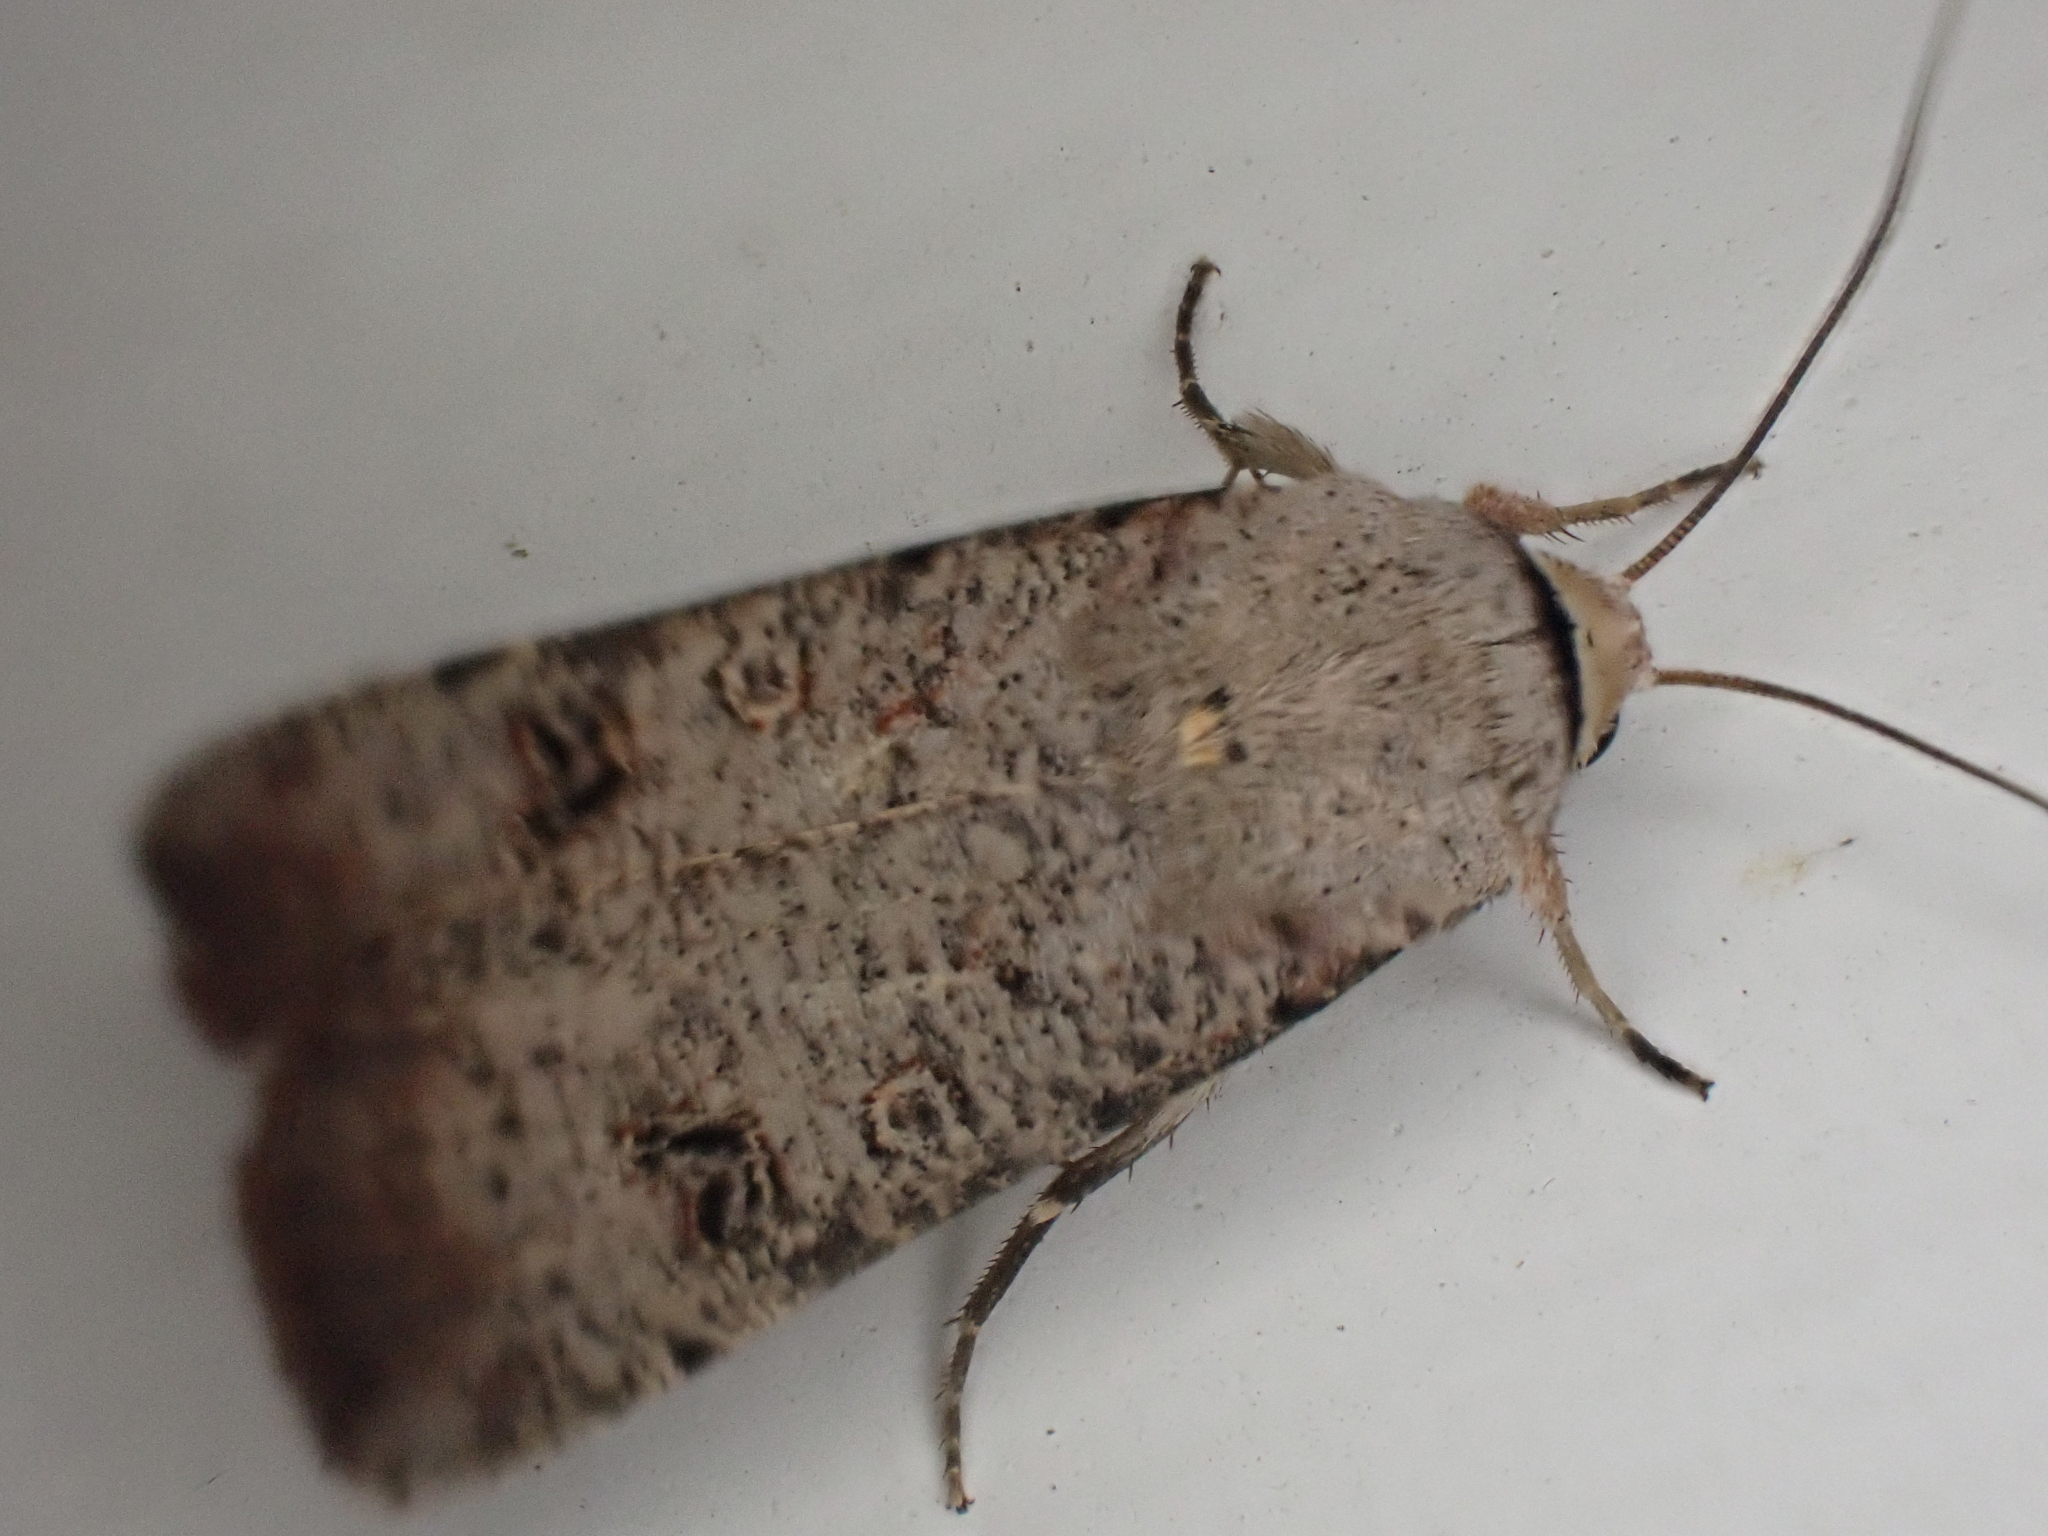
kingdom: Animalia
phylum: Arthropoda
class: Insecta
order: Lepidoptera
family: Noctuidae
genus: Anicla
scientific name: Anicla infecta
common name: Green cutworm
